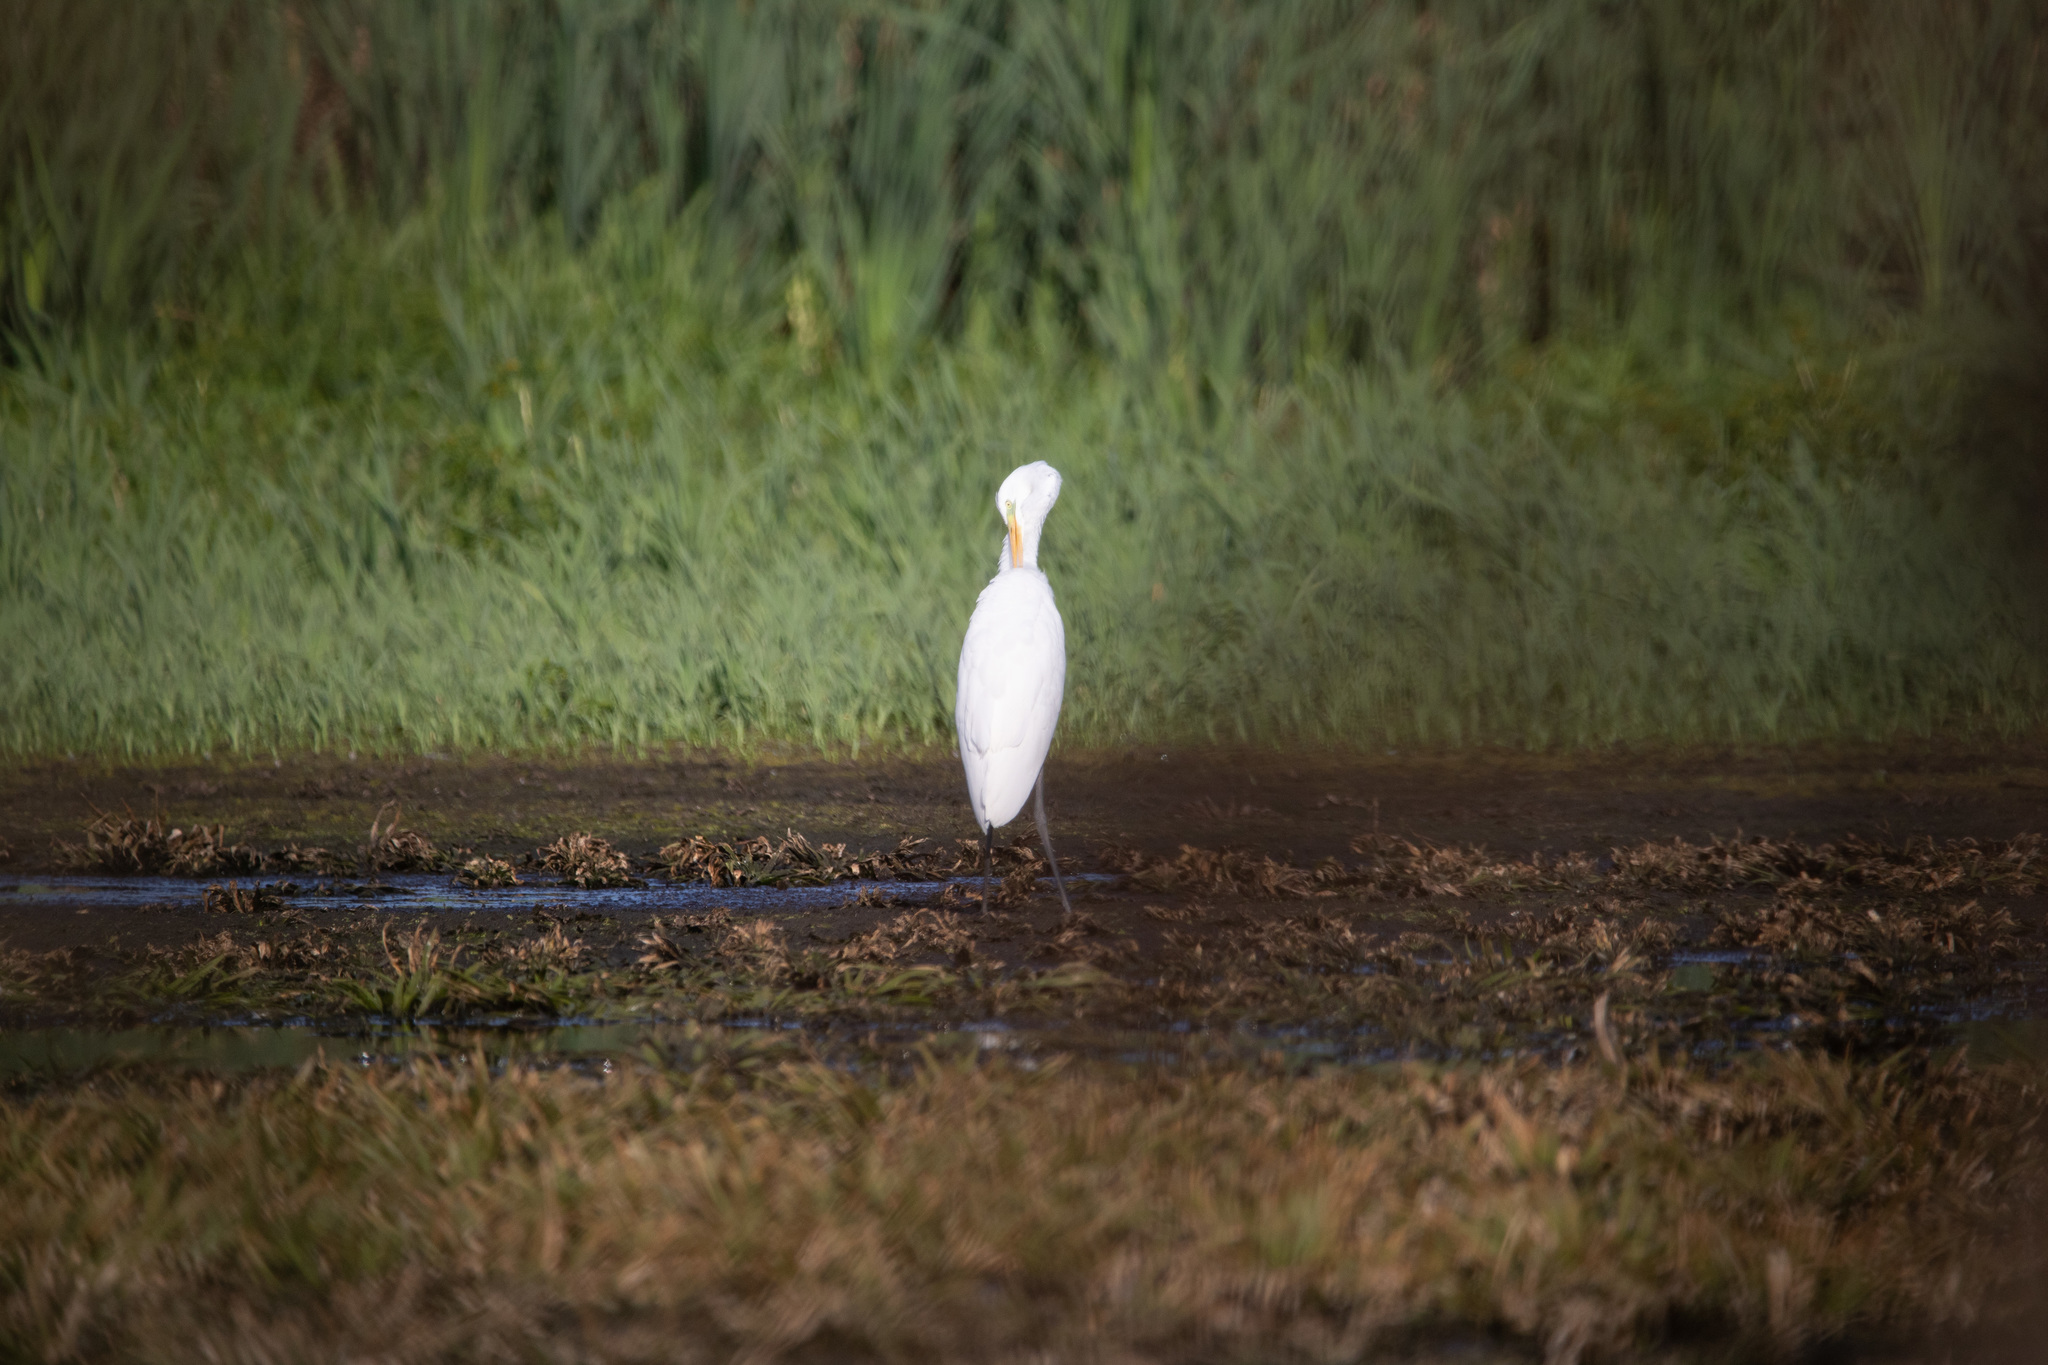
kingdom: Animalia
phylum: Chordata
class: Aves
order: Pelecaniformes
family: Ardeidae
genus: Ardea
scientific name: Ardea alba
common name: Great egret
